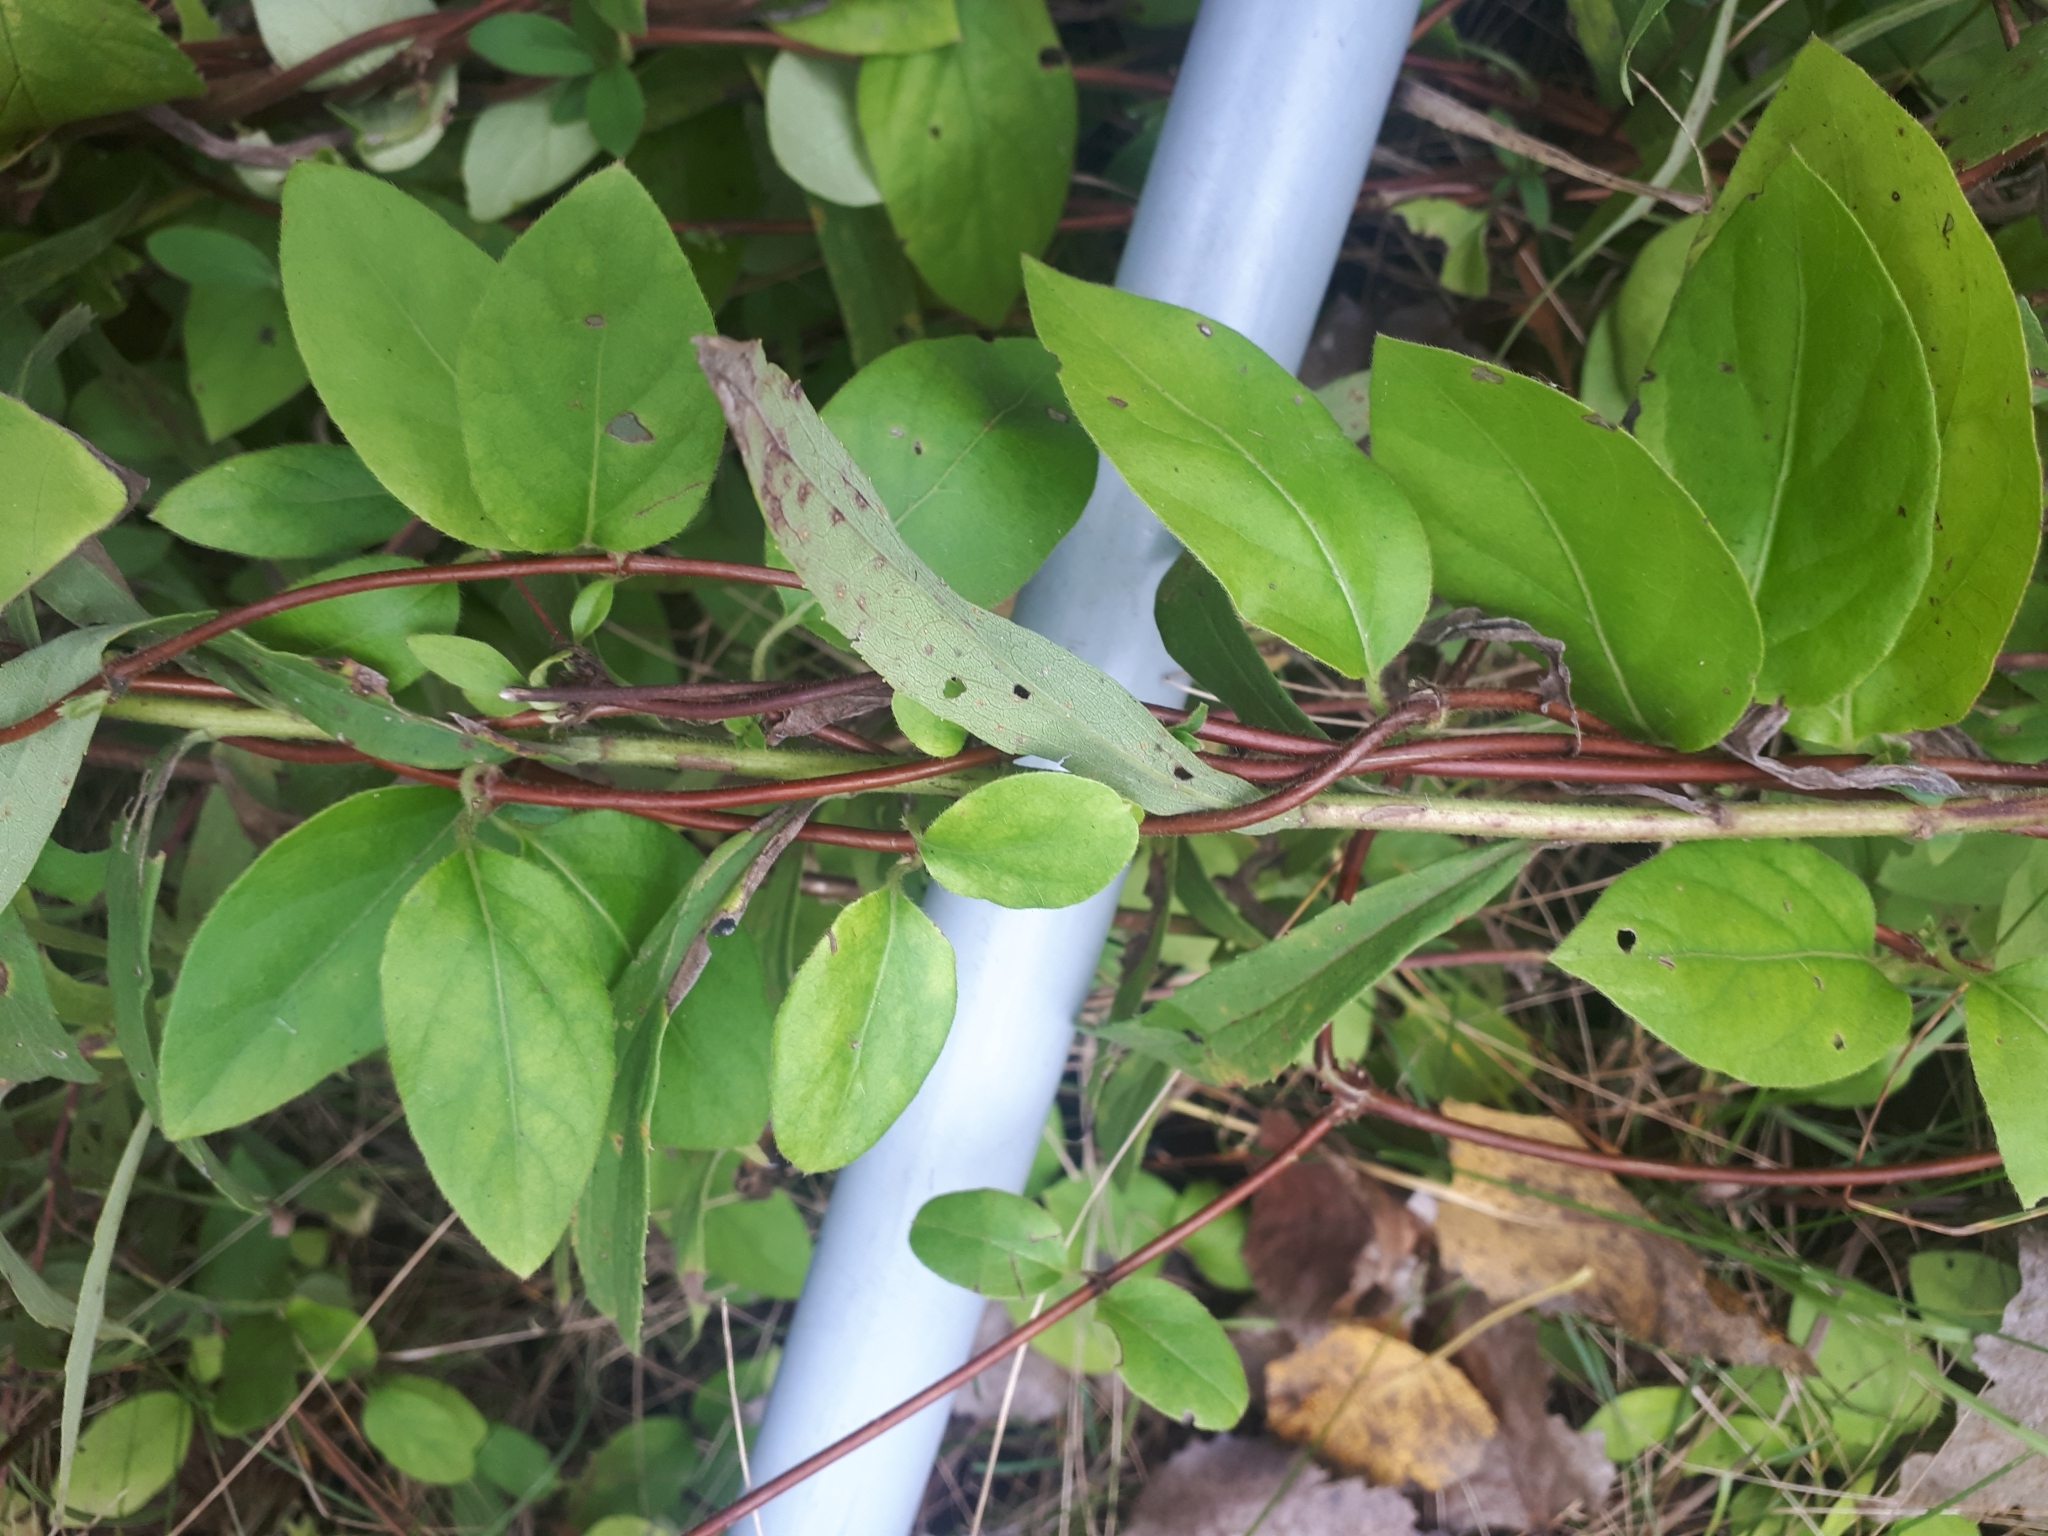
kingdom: Plantae
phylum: Tracheophyta
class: Magnoliopsida
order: Dipsacales
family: Caprifoliaceae
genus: Lonicera
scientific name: Lonicera japonica
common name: Japanese honeysuckle
